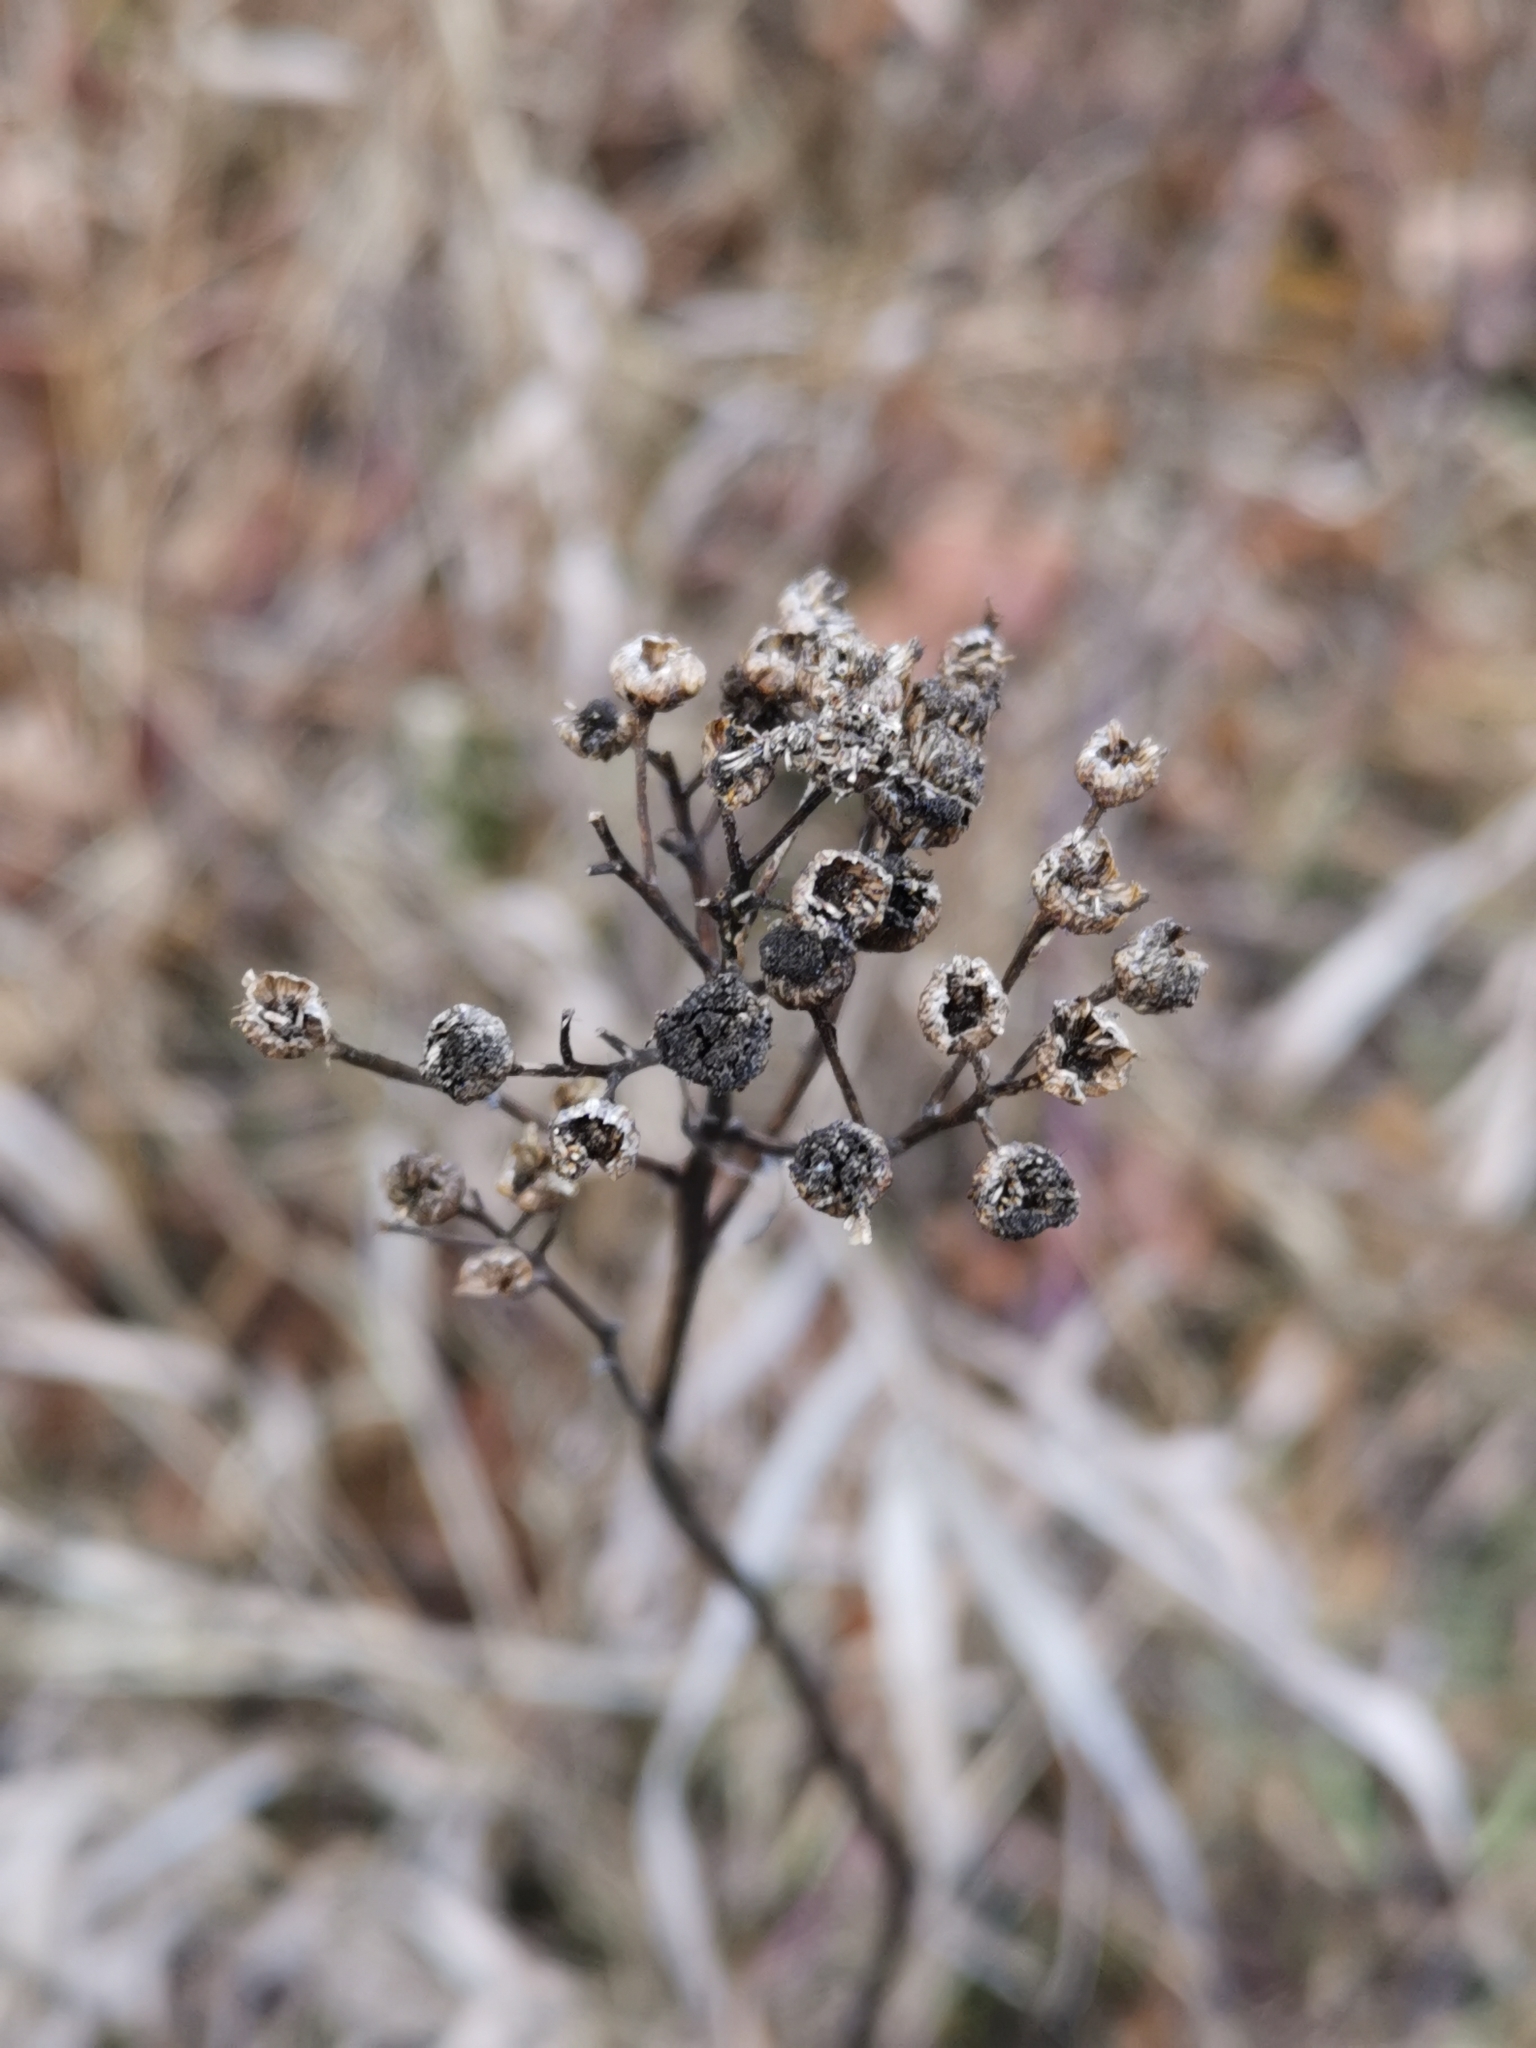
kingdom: Plantae
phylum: Tracheophyta
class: Magnoliopsida
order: Asterales
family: Asteraceae
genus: Tanacetum
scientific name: Tanacetum vulgare
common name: Common tansy
